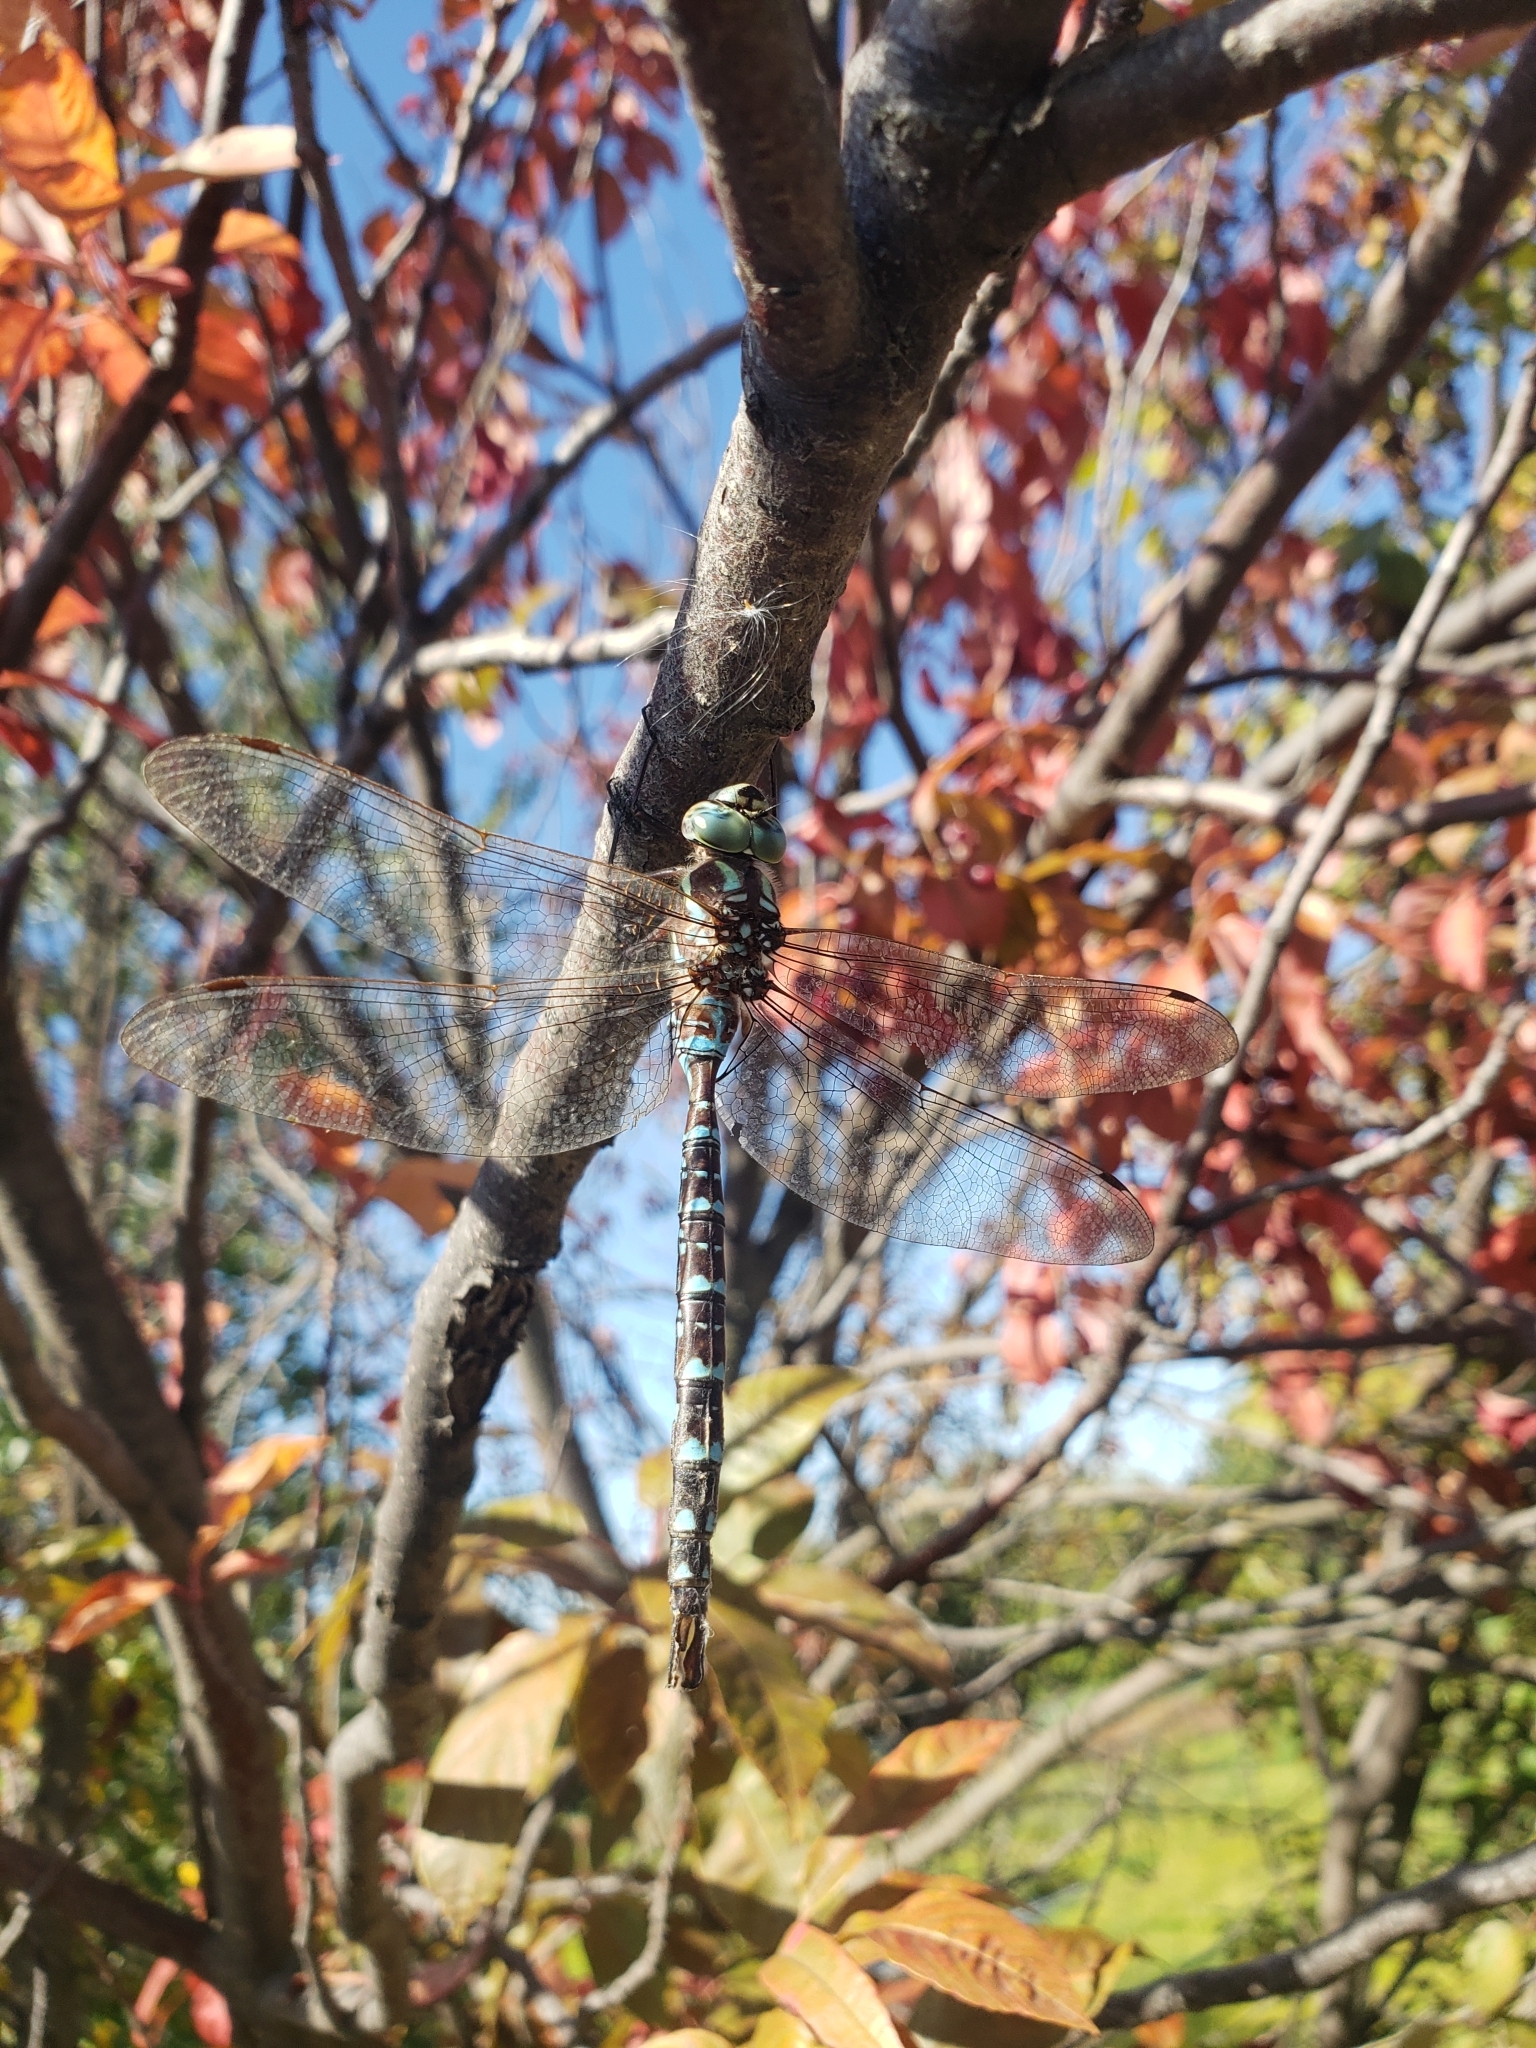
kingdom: Animalia
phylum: Arthropoda
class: Insecta
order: Odonata
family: Aeshnidae
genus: Aeshna
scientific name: Aeshna umbrosa
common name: Shadow darner
